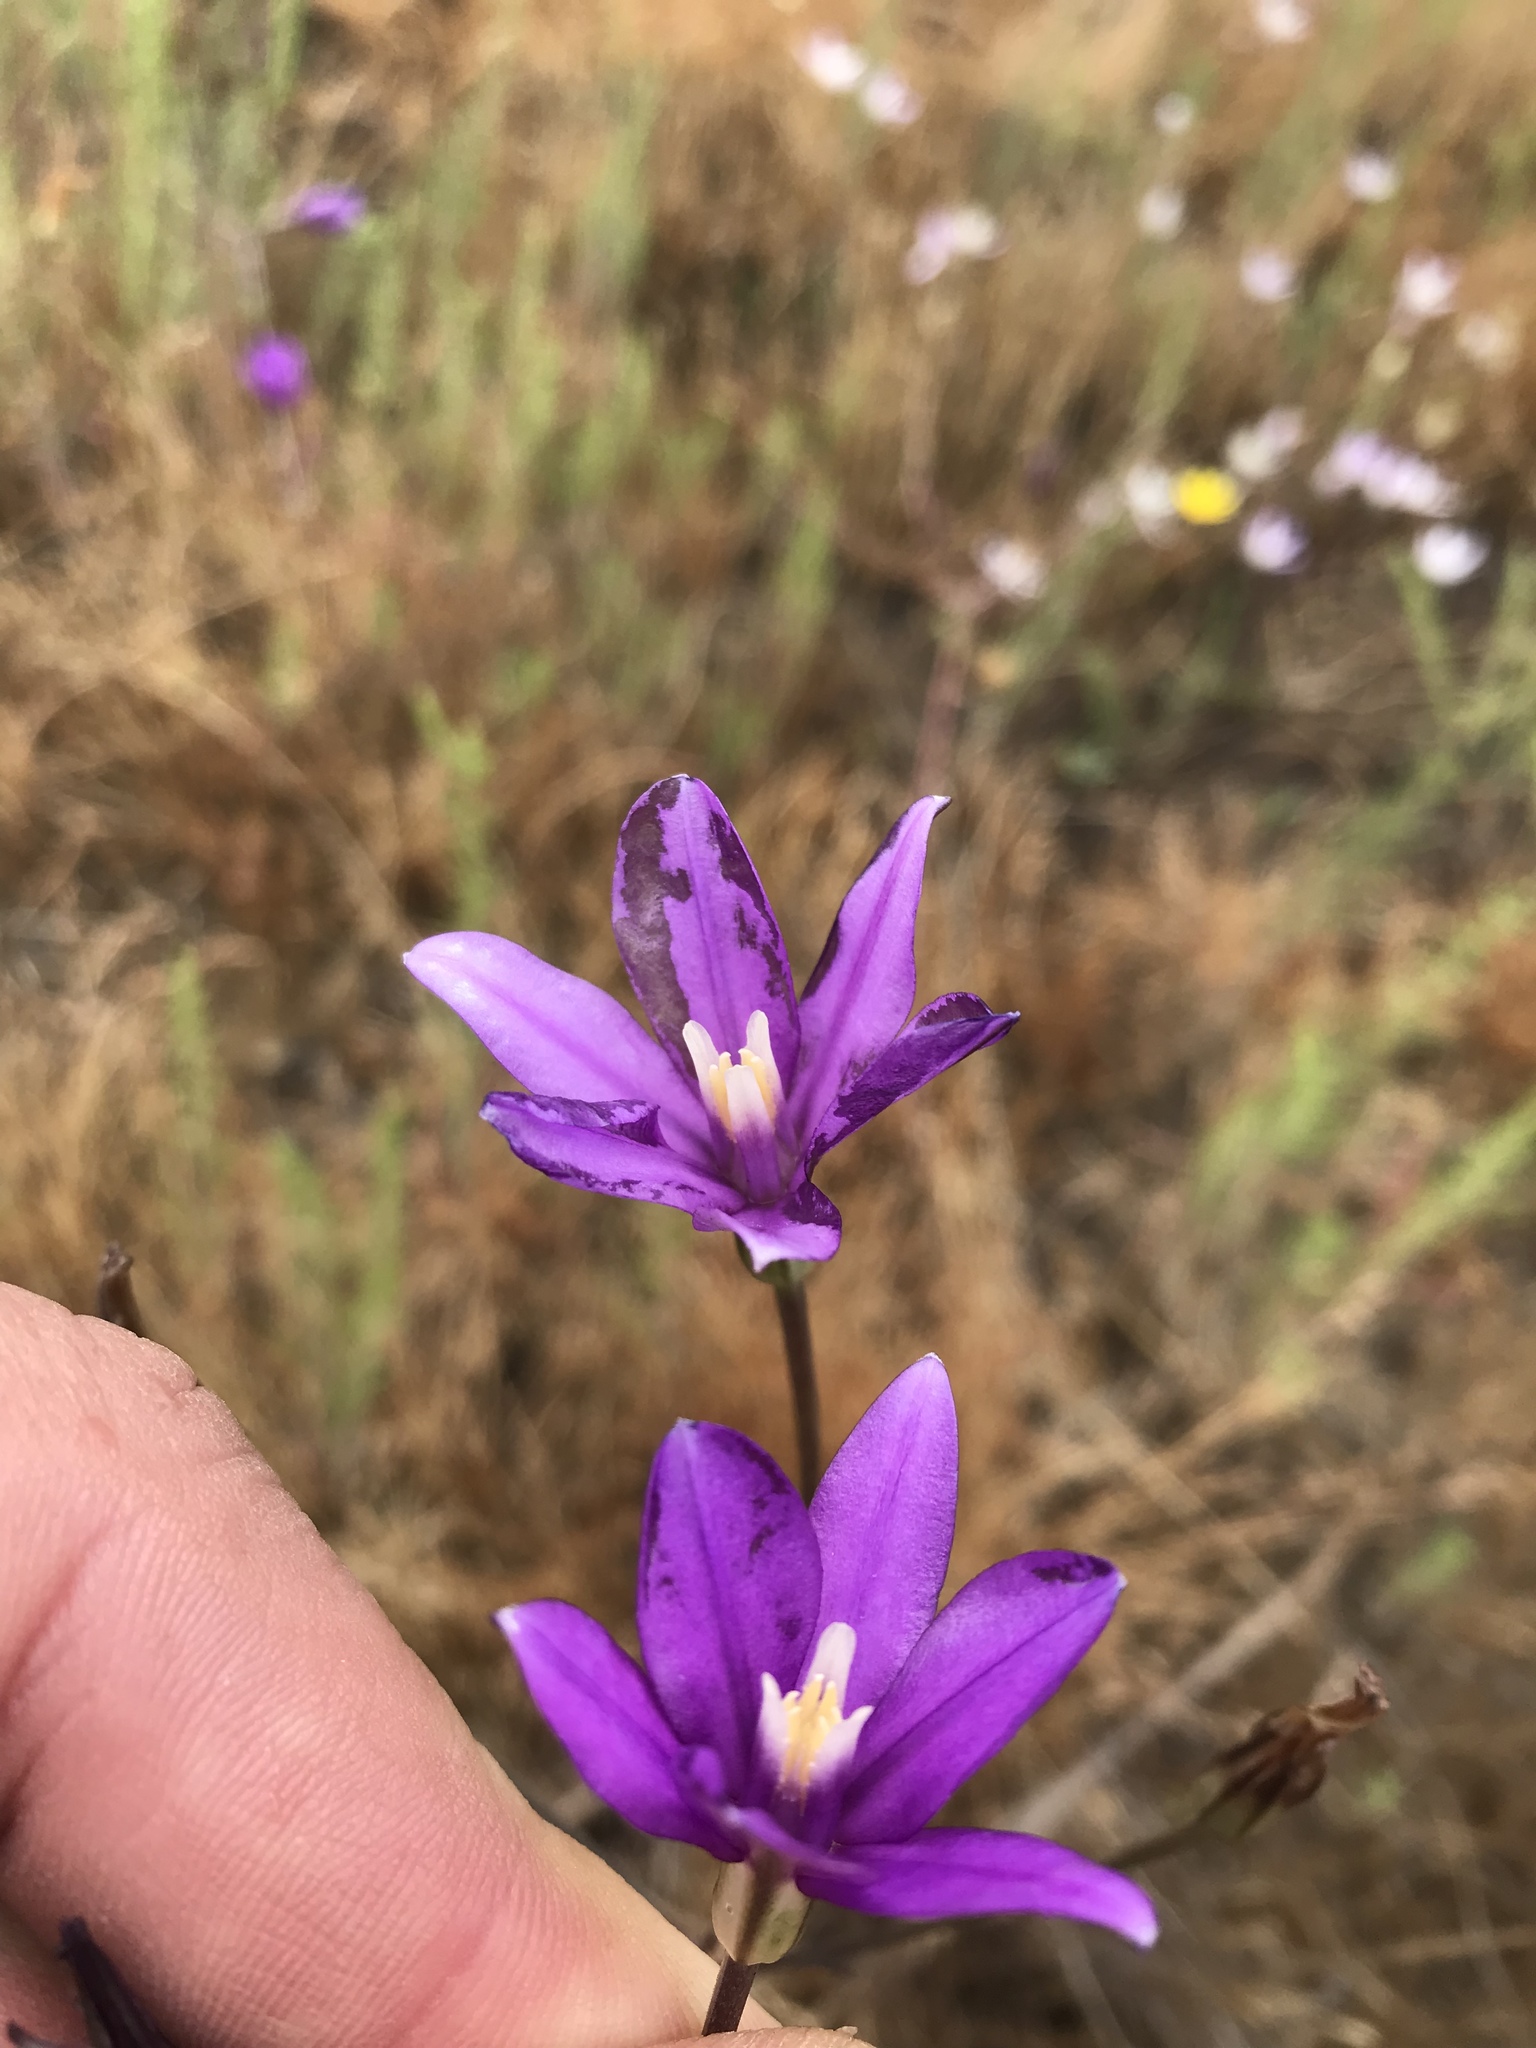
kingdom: Plantae
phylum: Tracheophyta
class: Liliopsida
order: Asparagales
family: Asparagaceae
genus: Brodiaea
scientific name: Brodiaea appendiculata
